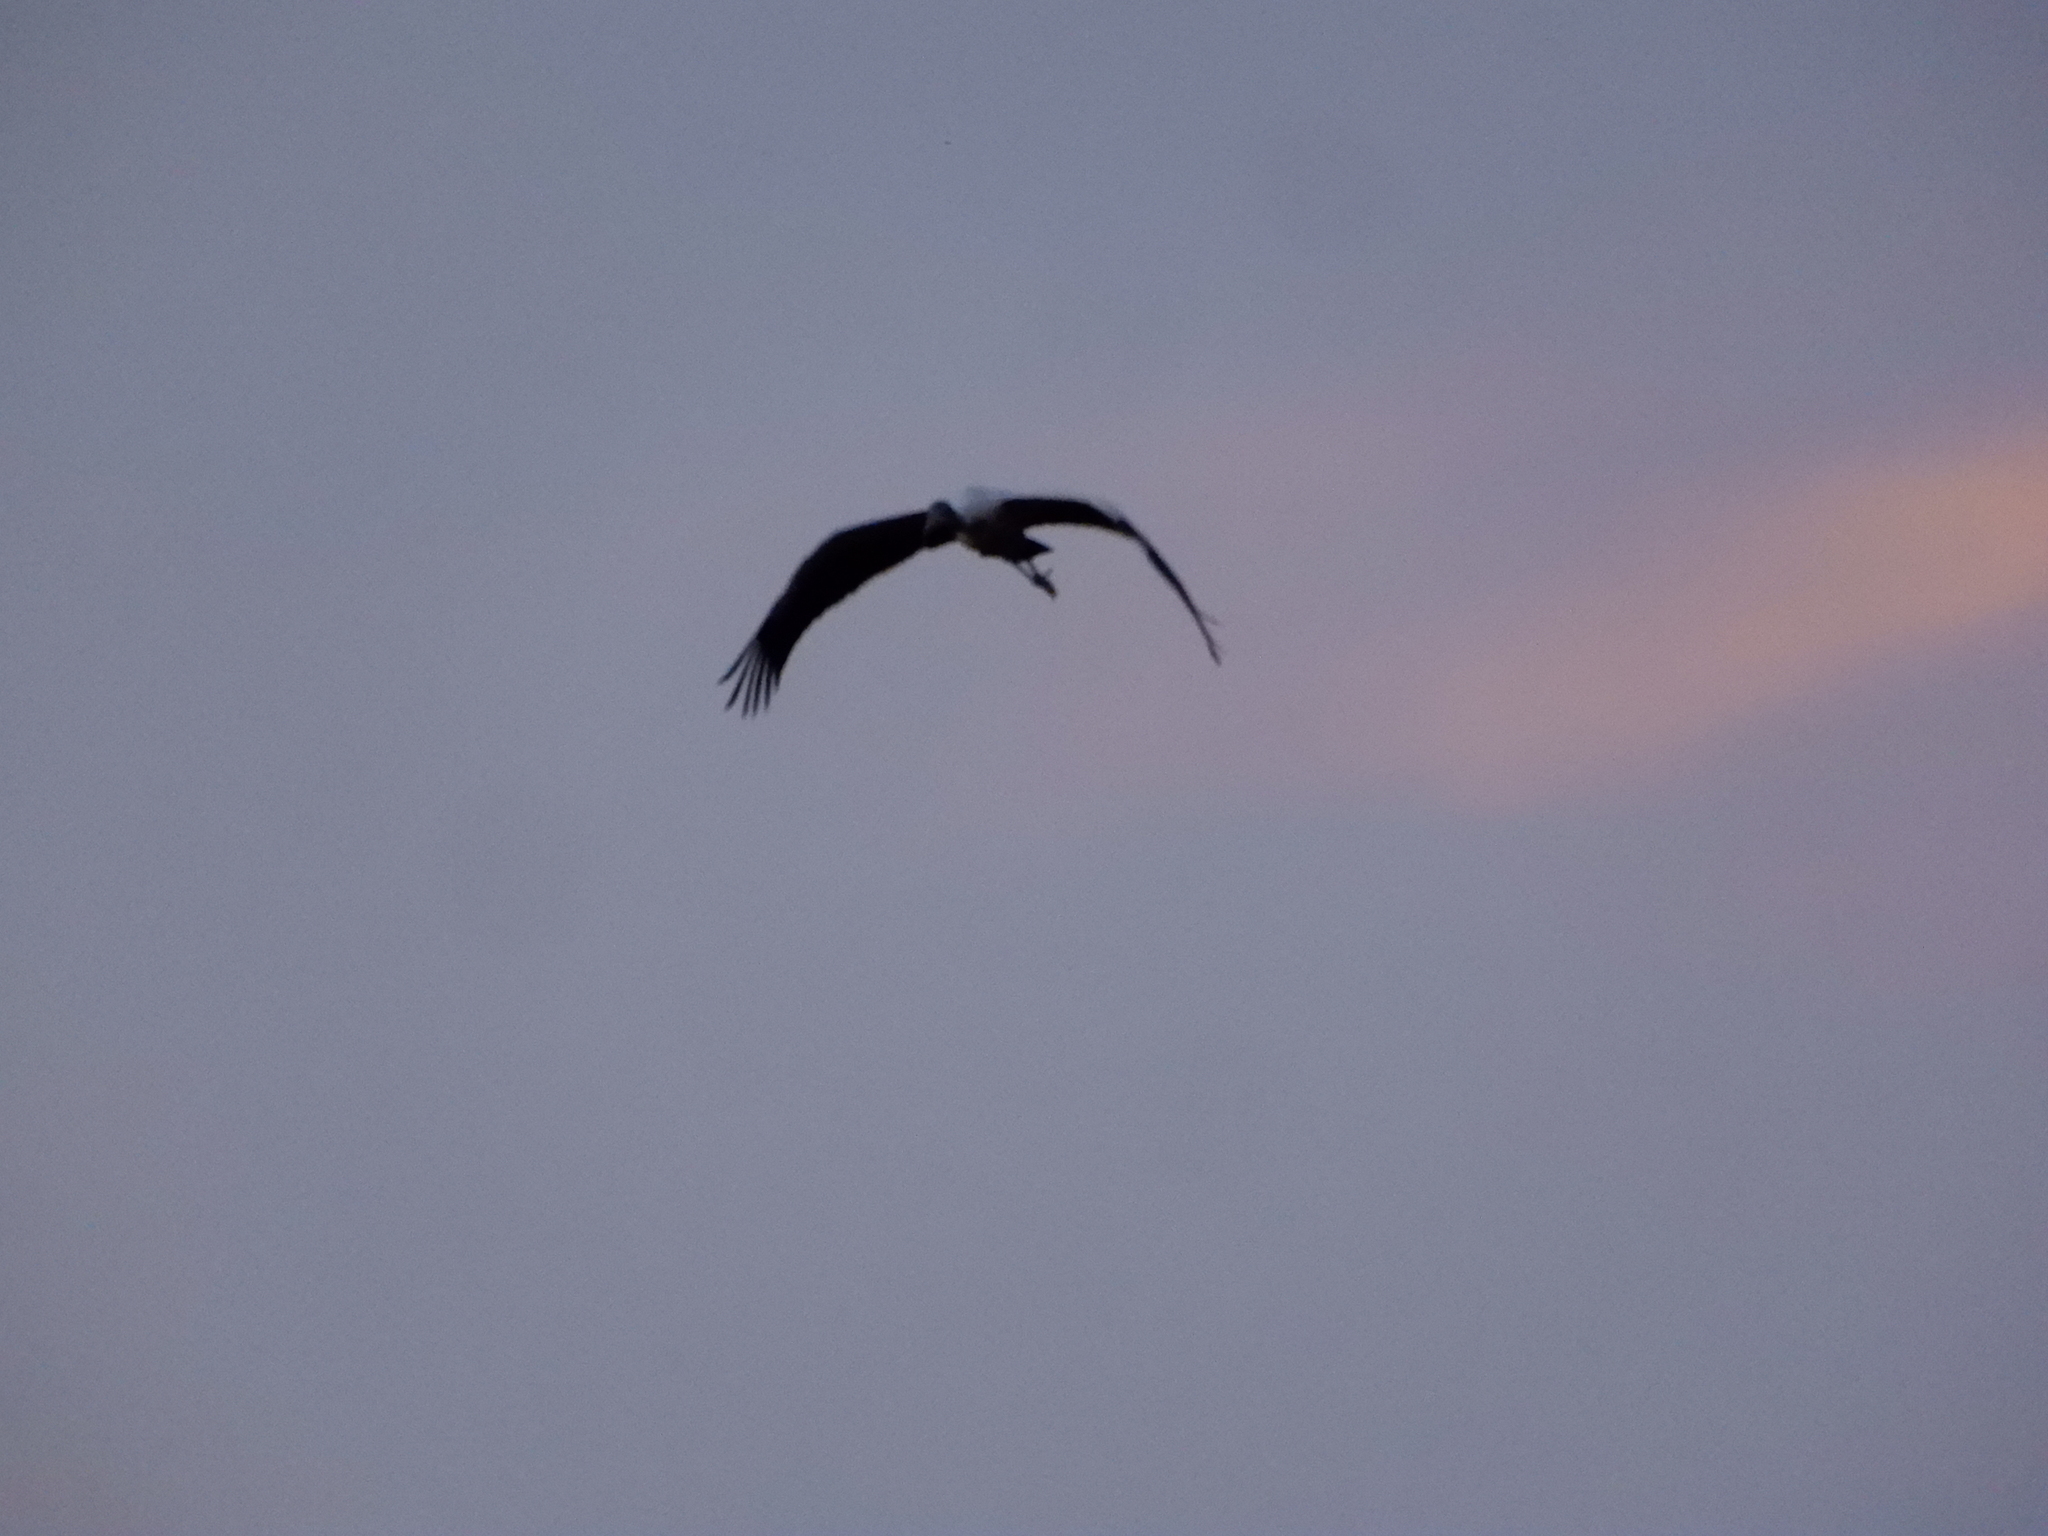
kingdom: Animalia
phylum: Chordata
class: Aves
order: Ciconiiformes
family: Ciconiidae
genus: Mycteria
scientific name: Mycteria americana
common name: Wood stork
